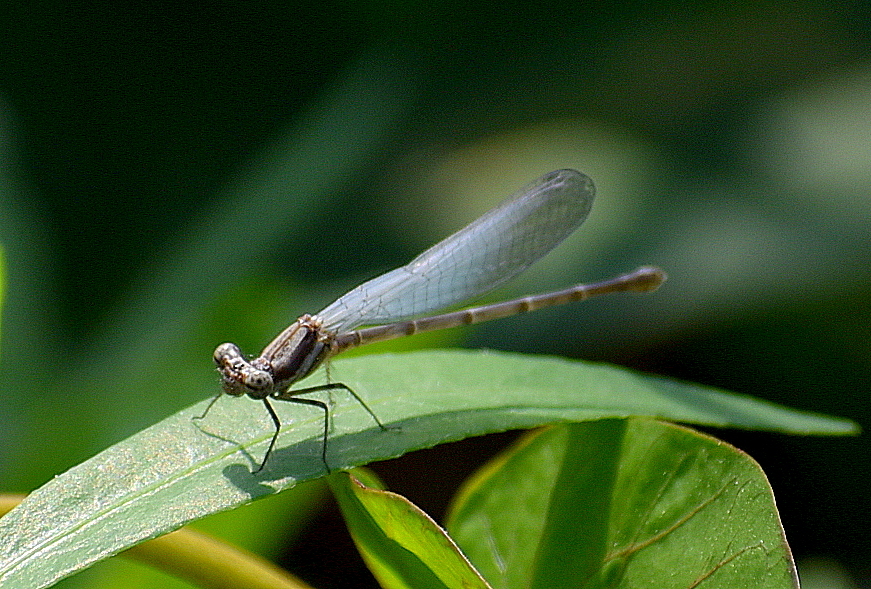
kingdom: Animalia
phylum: Arthropoda
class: Insecta
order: Odonata
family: Platycnemididae
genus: Onychargia
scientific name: Onychargia atrocyana
